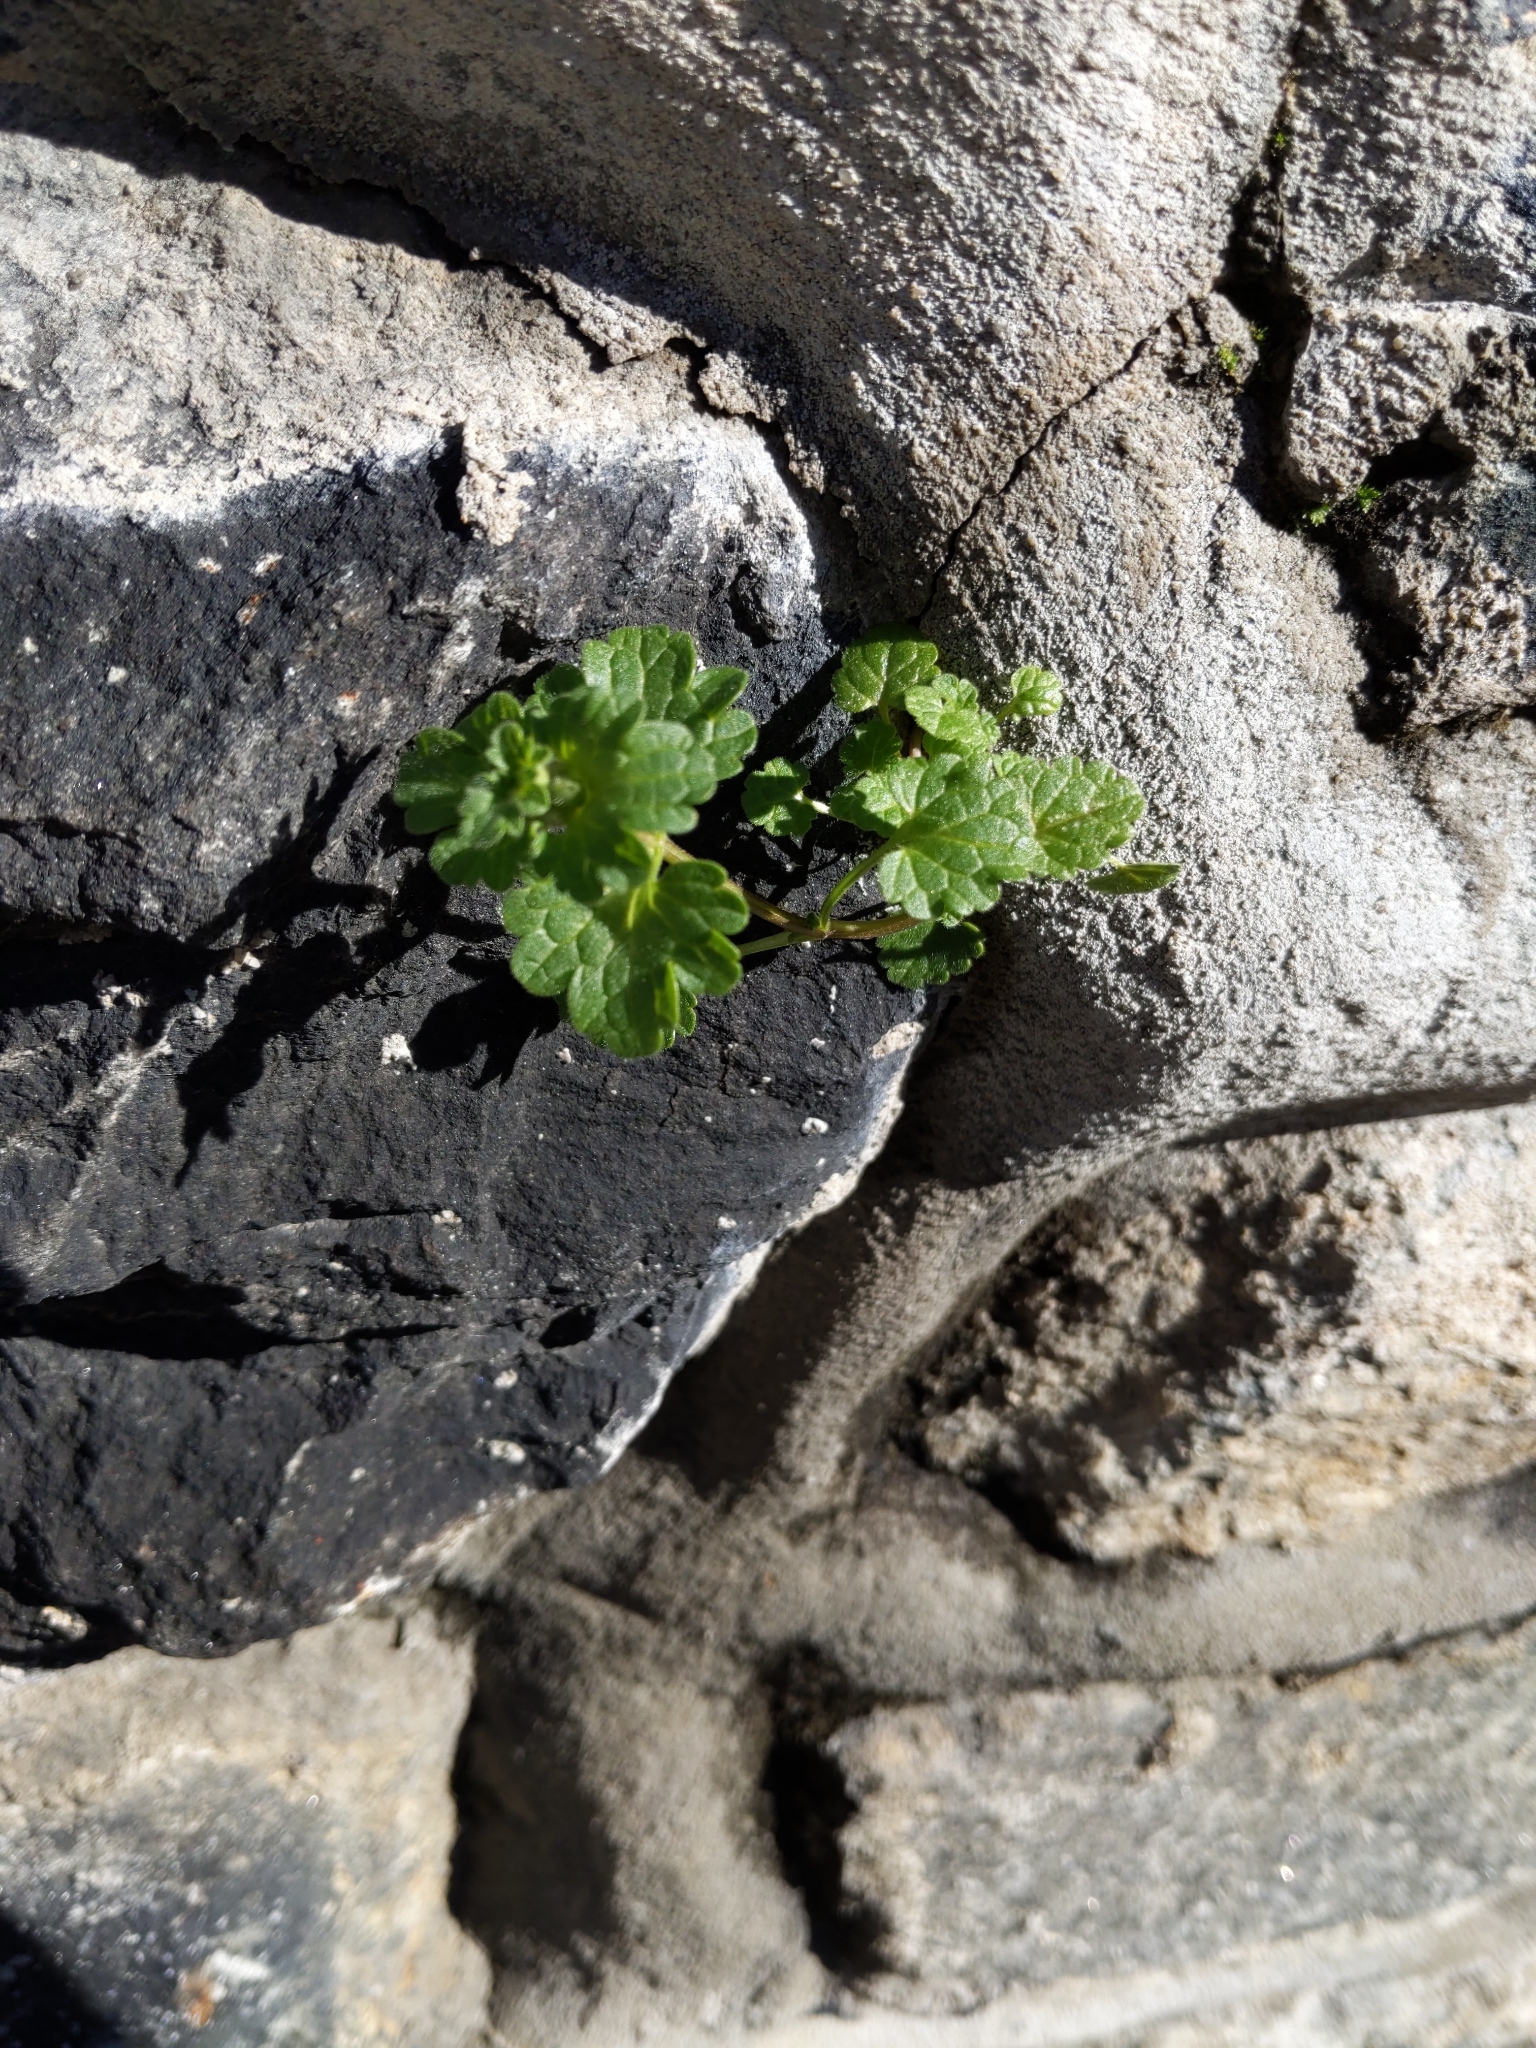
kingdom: Plantae
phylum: Tracheophyta
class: Magnoliopsida
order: Lamiales
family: Lamiaceae
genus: Lamium
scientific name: Lamium amplexicaule
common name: Henbit dead-nettle
